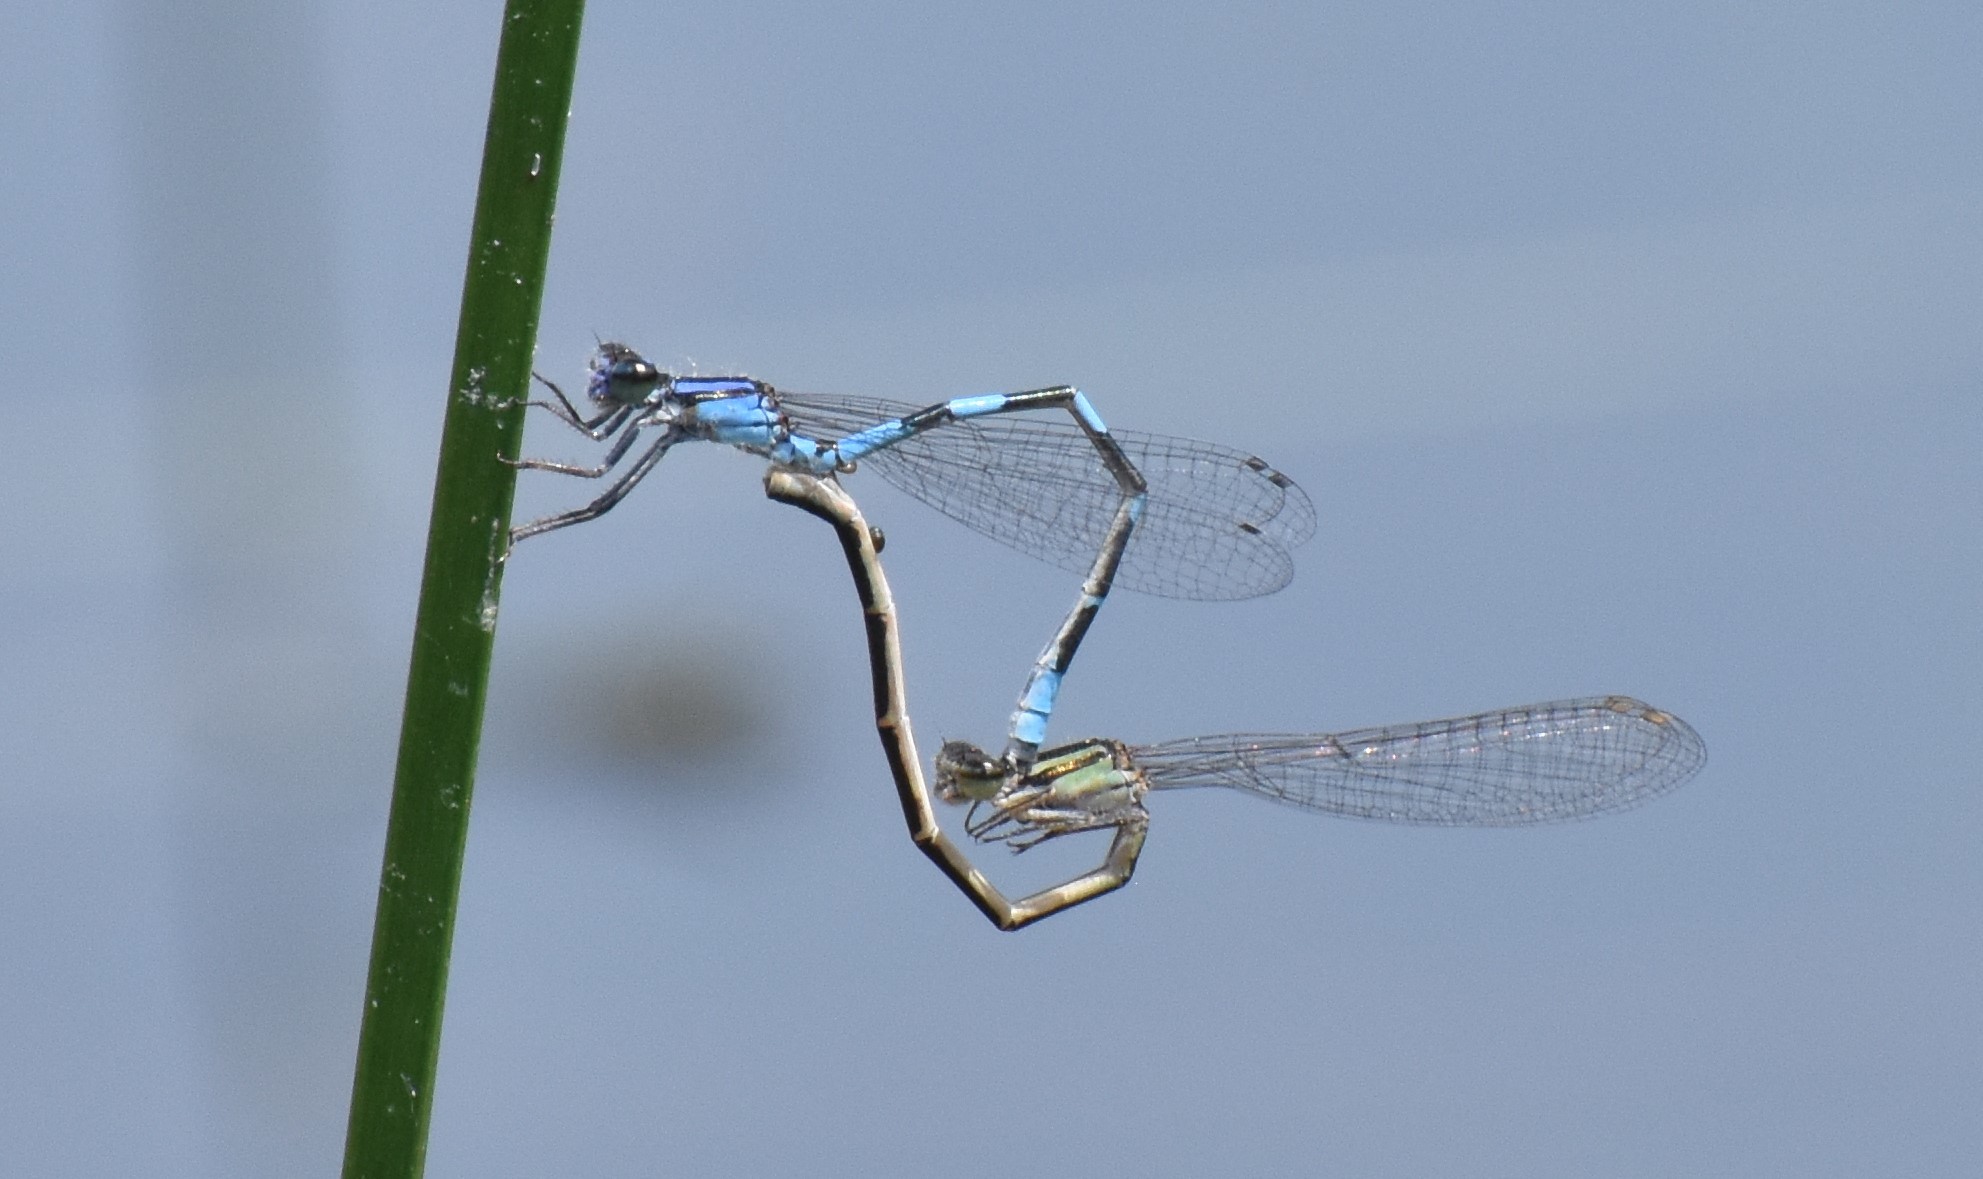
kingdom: Animalia
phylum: Arthropoda
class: Insecta
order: Odonata
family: Coenagrionidae
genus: Enallagma
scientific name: Enallagma minusculum
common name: Little bluet
